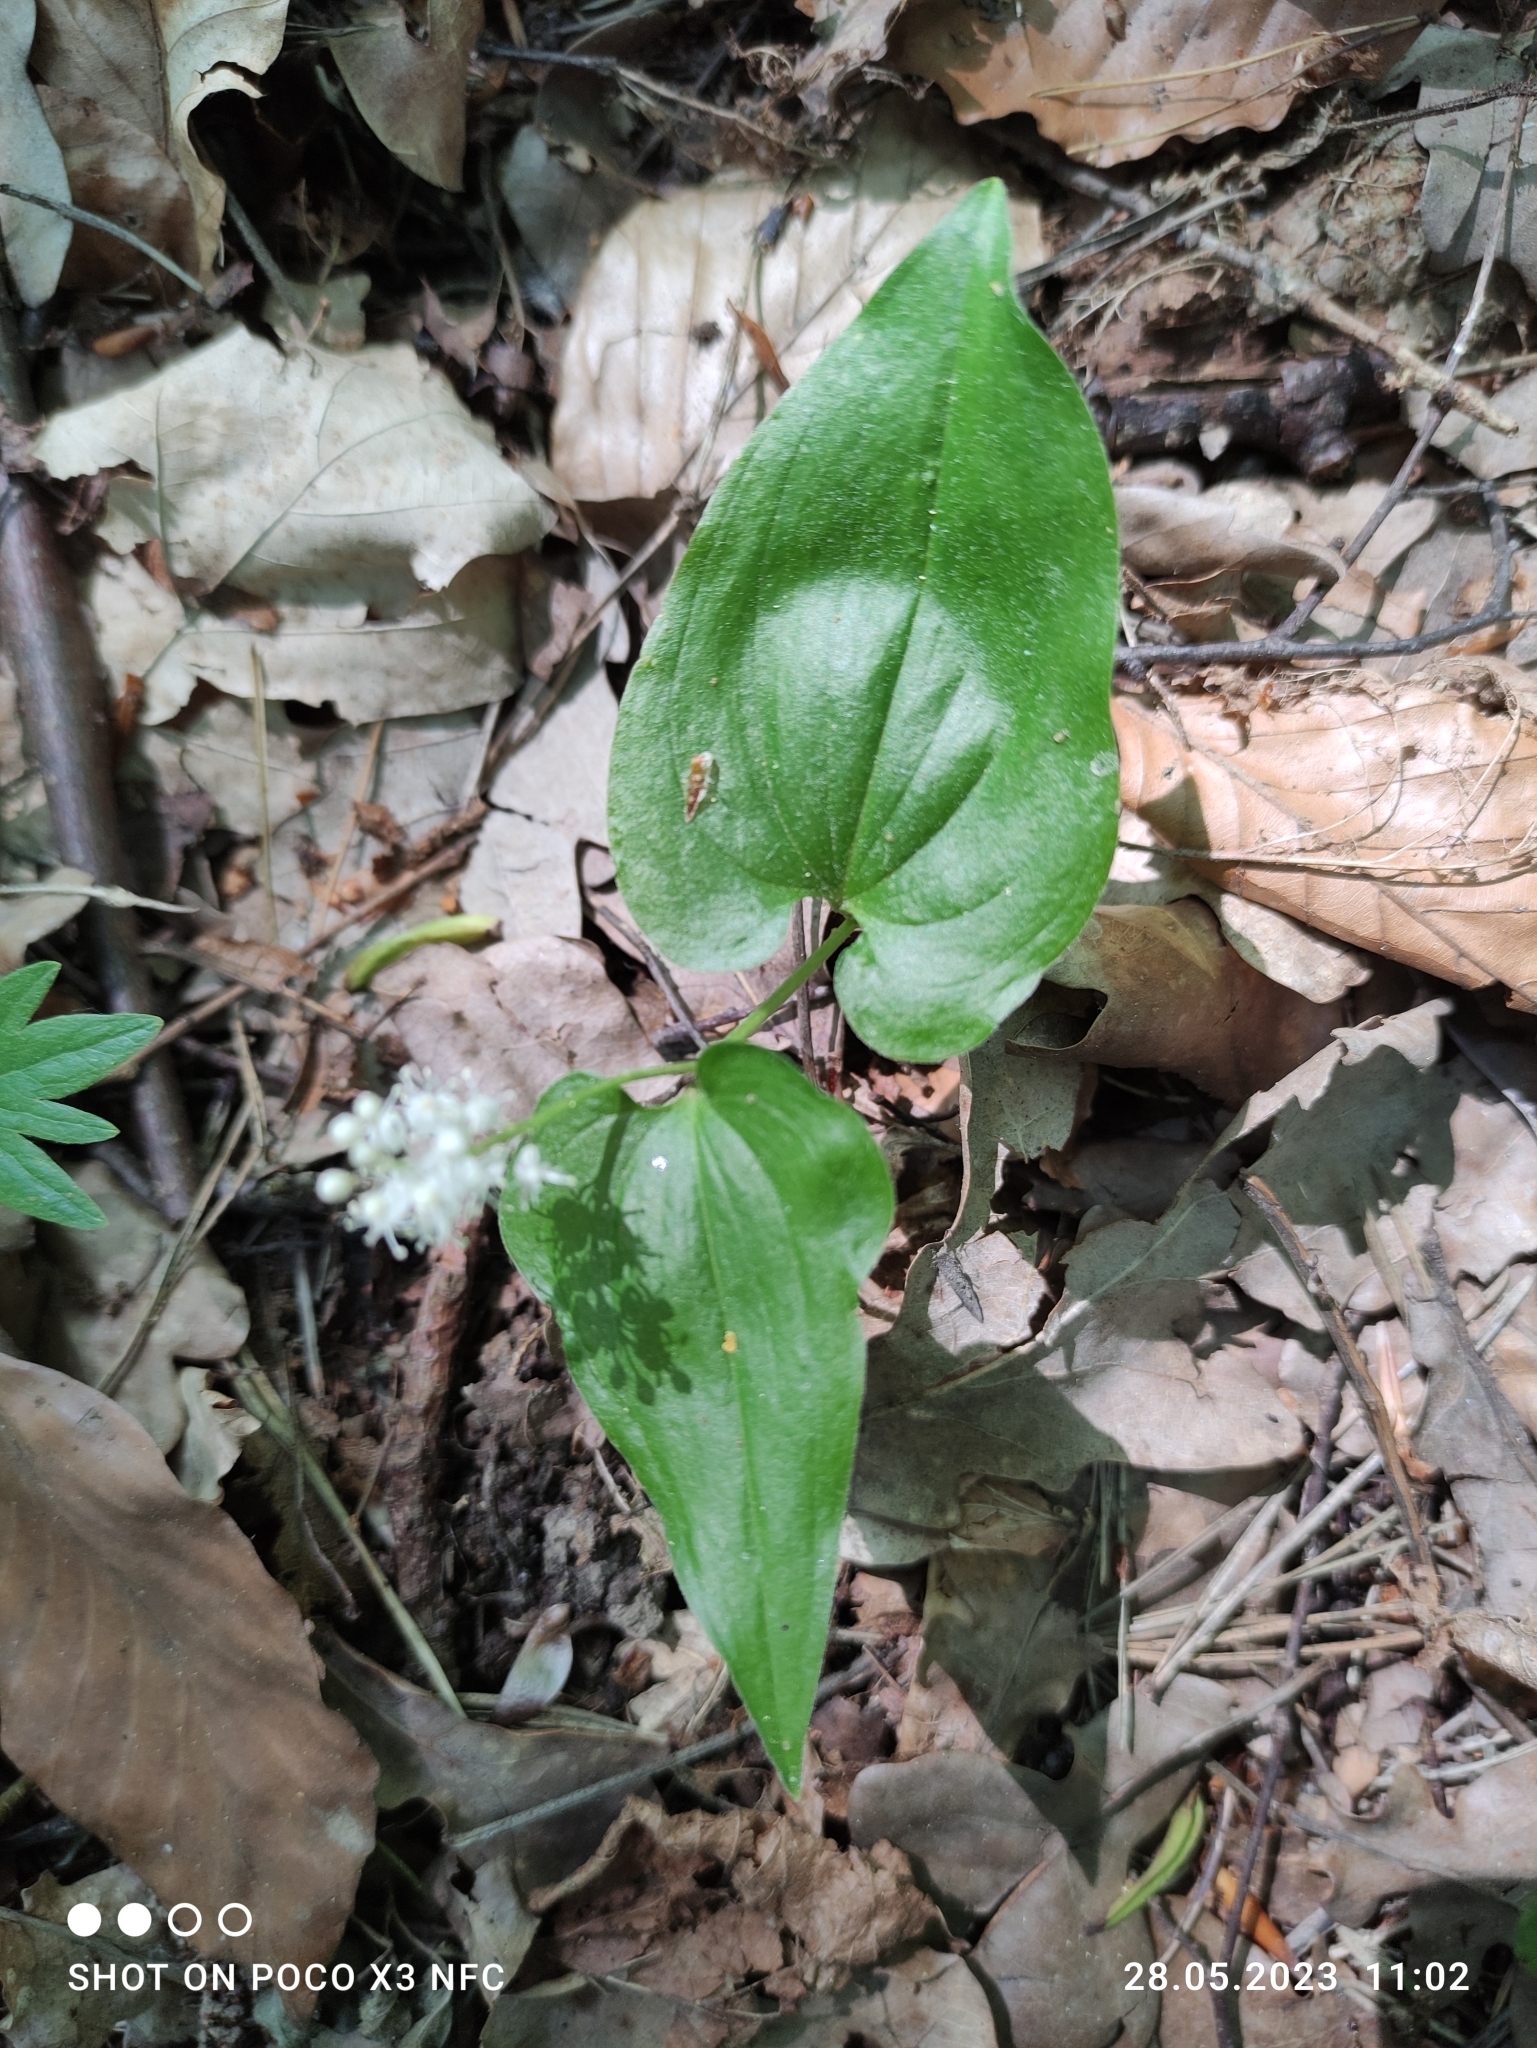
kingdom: Plantae
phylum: Tracheophyta
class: Liliopsida
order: Asparagales
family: Asparagaceae
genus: Maianthemum
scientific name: Maianthemum bifolium
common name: May lily
